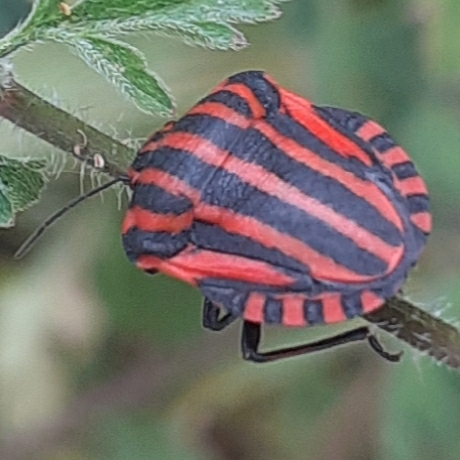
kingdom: Animalia
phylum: Arthropoda
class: Insecta
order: Hemiptera
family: Pentatomidae
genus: Graphosoma
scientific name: Graphosoma italicum
